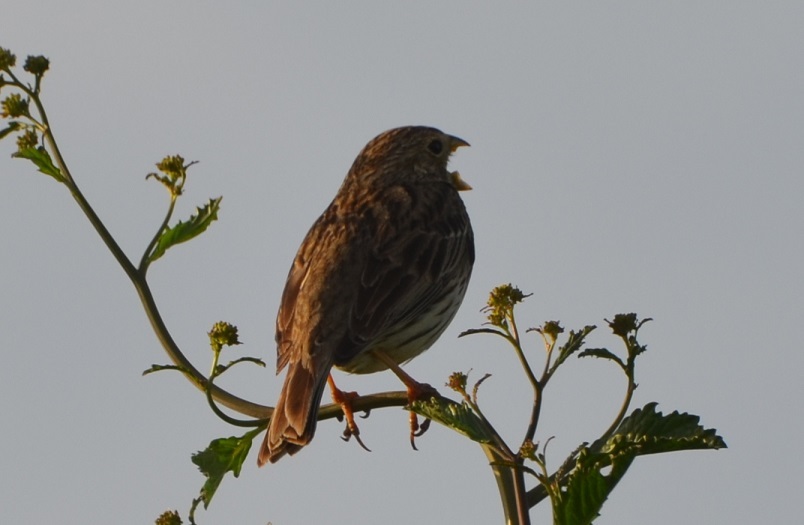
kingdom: Animalia
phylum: Chordata
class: Aves
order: Passeriformes
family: Emberizidae
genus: Emberiza
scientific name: Emberiza calandra
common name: Corn bunting
